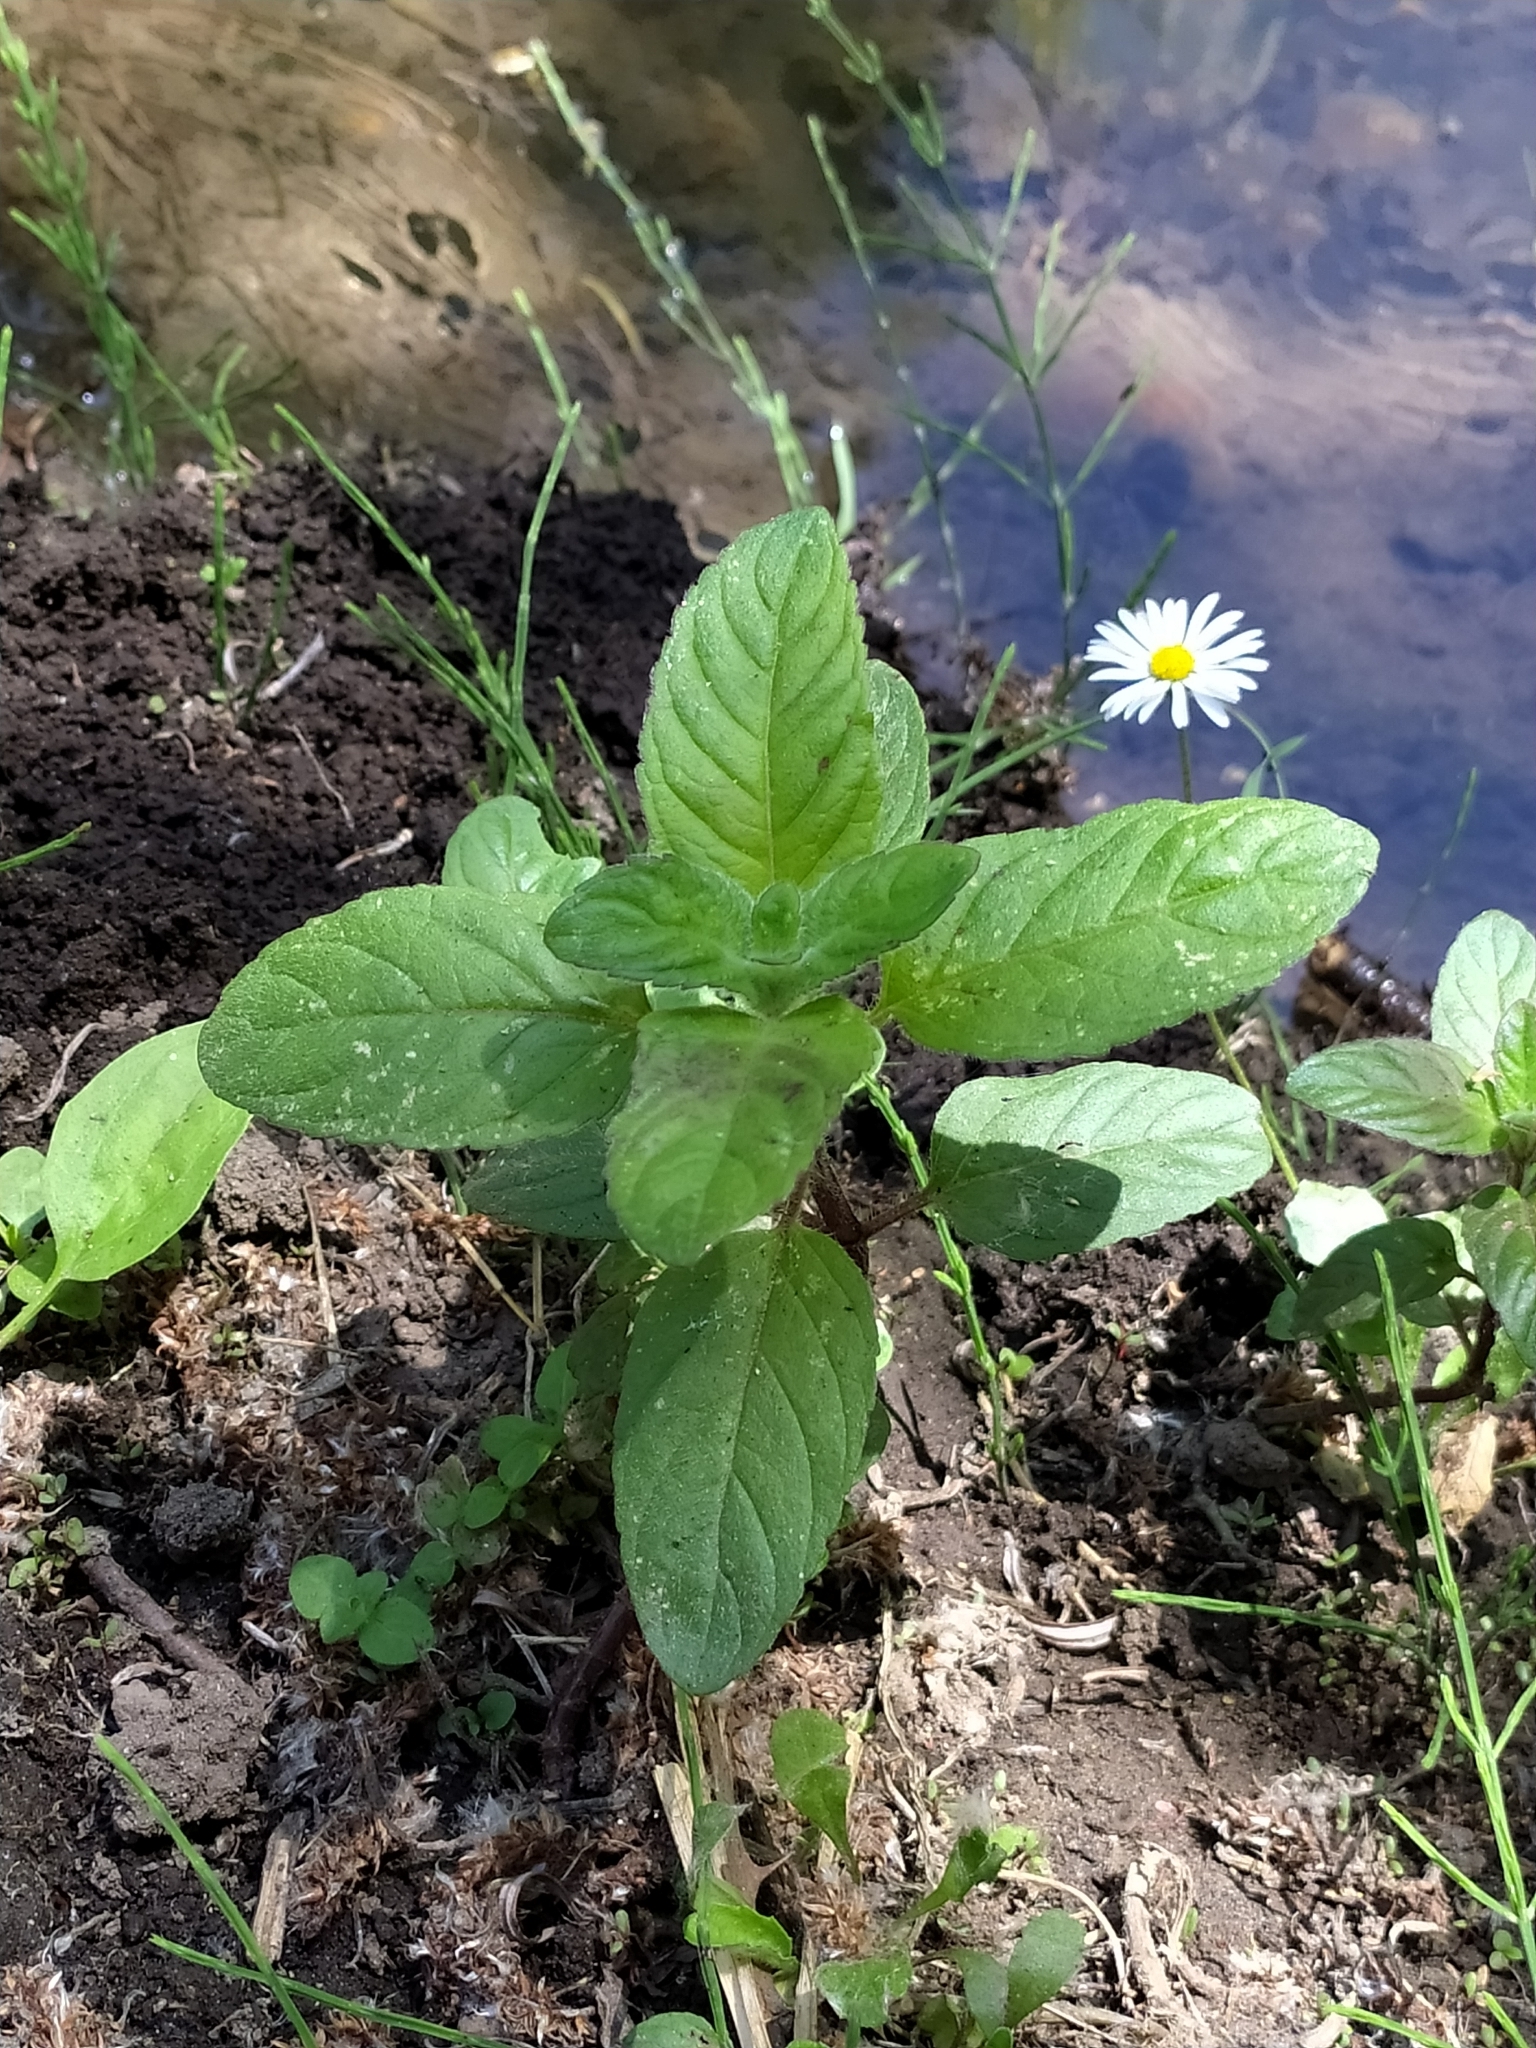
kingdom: Plantae
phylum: Tracheophyta
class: Magnoliopsida
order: Lamiales
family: Lamiaceae
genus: Mentha
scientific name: Mentha aquatica
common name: Water mint
